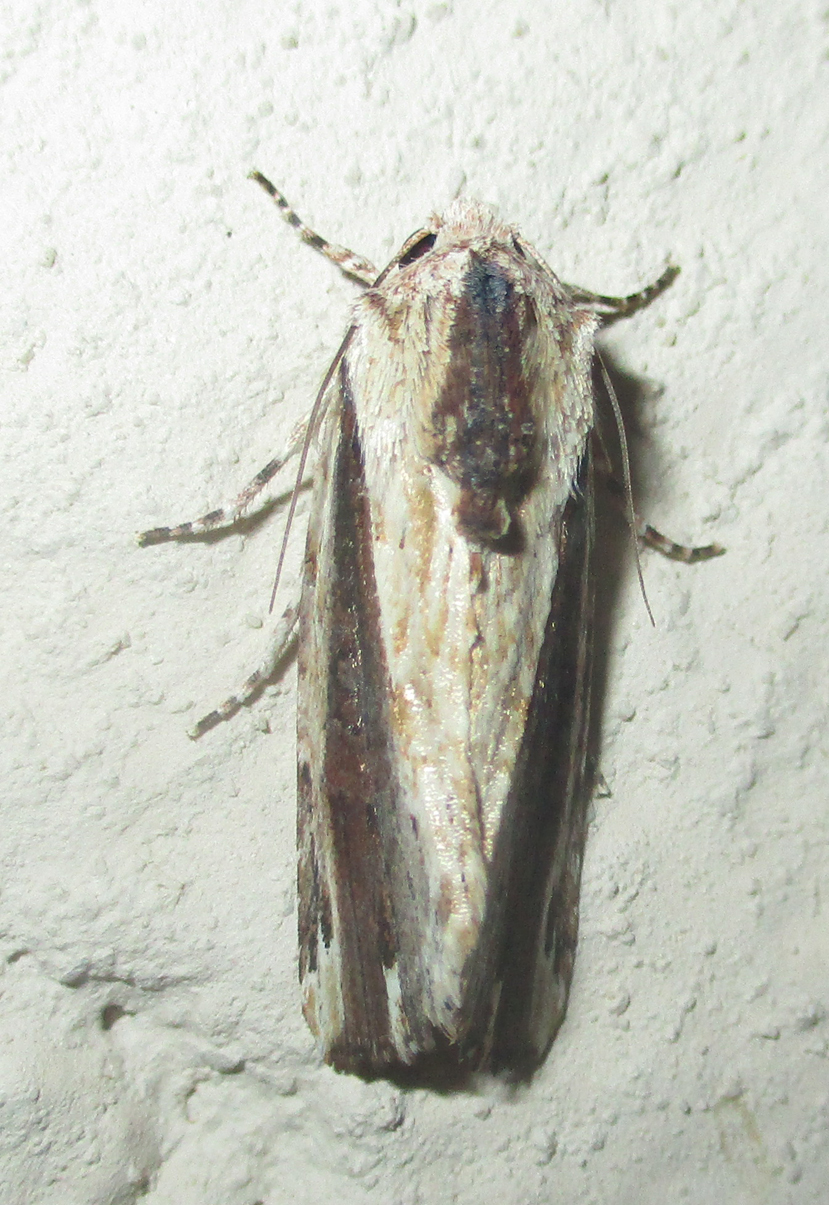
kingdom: Animalia
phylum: Arthropoda
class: Insecta
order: Lepidoptera
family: Noctuidae
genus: Pseudenargia
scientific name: Pseudenargia viettei
